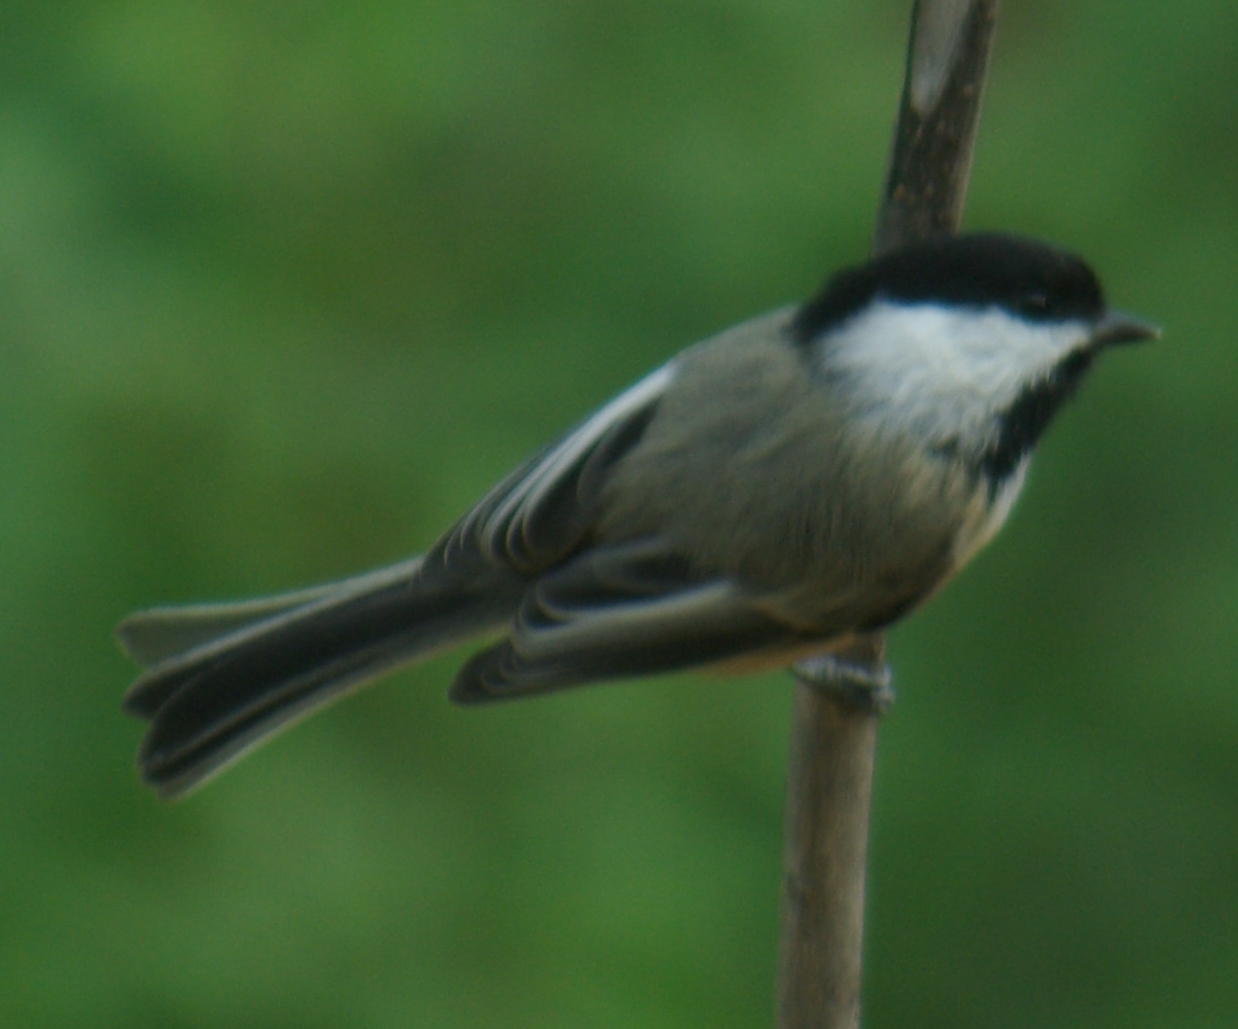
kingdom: Animalia
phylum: Chordata
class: Aves
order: Passeriformes
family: Paridae
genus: Poecile
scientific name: Poecile atricapillus
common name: Black-capped chickadee
